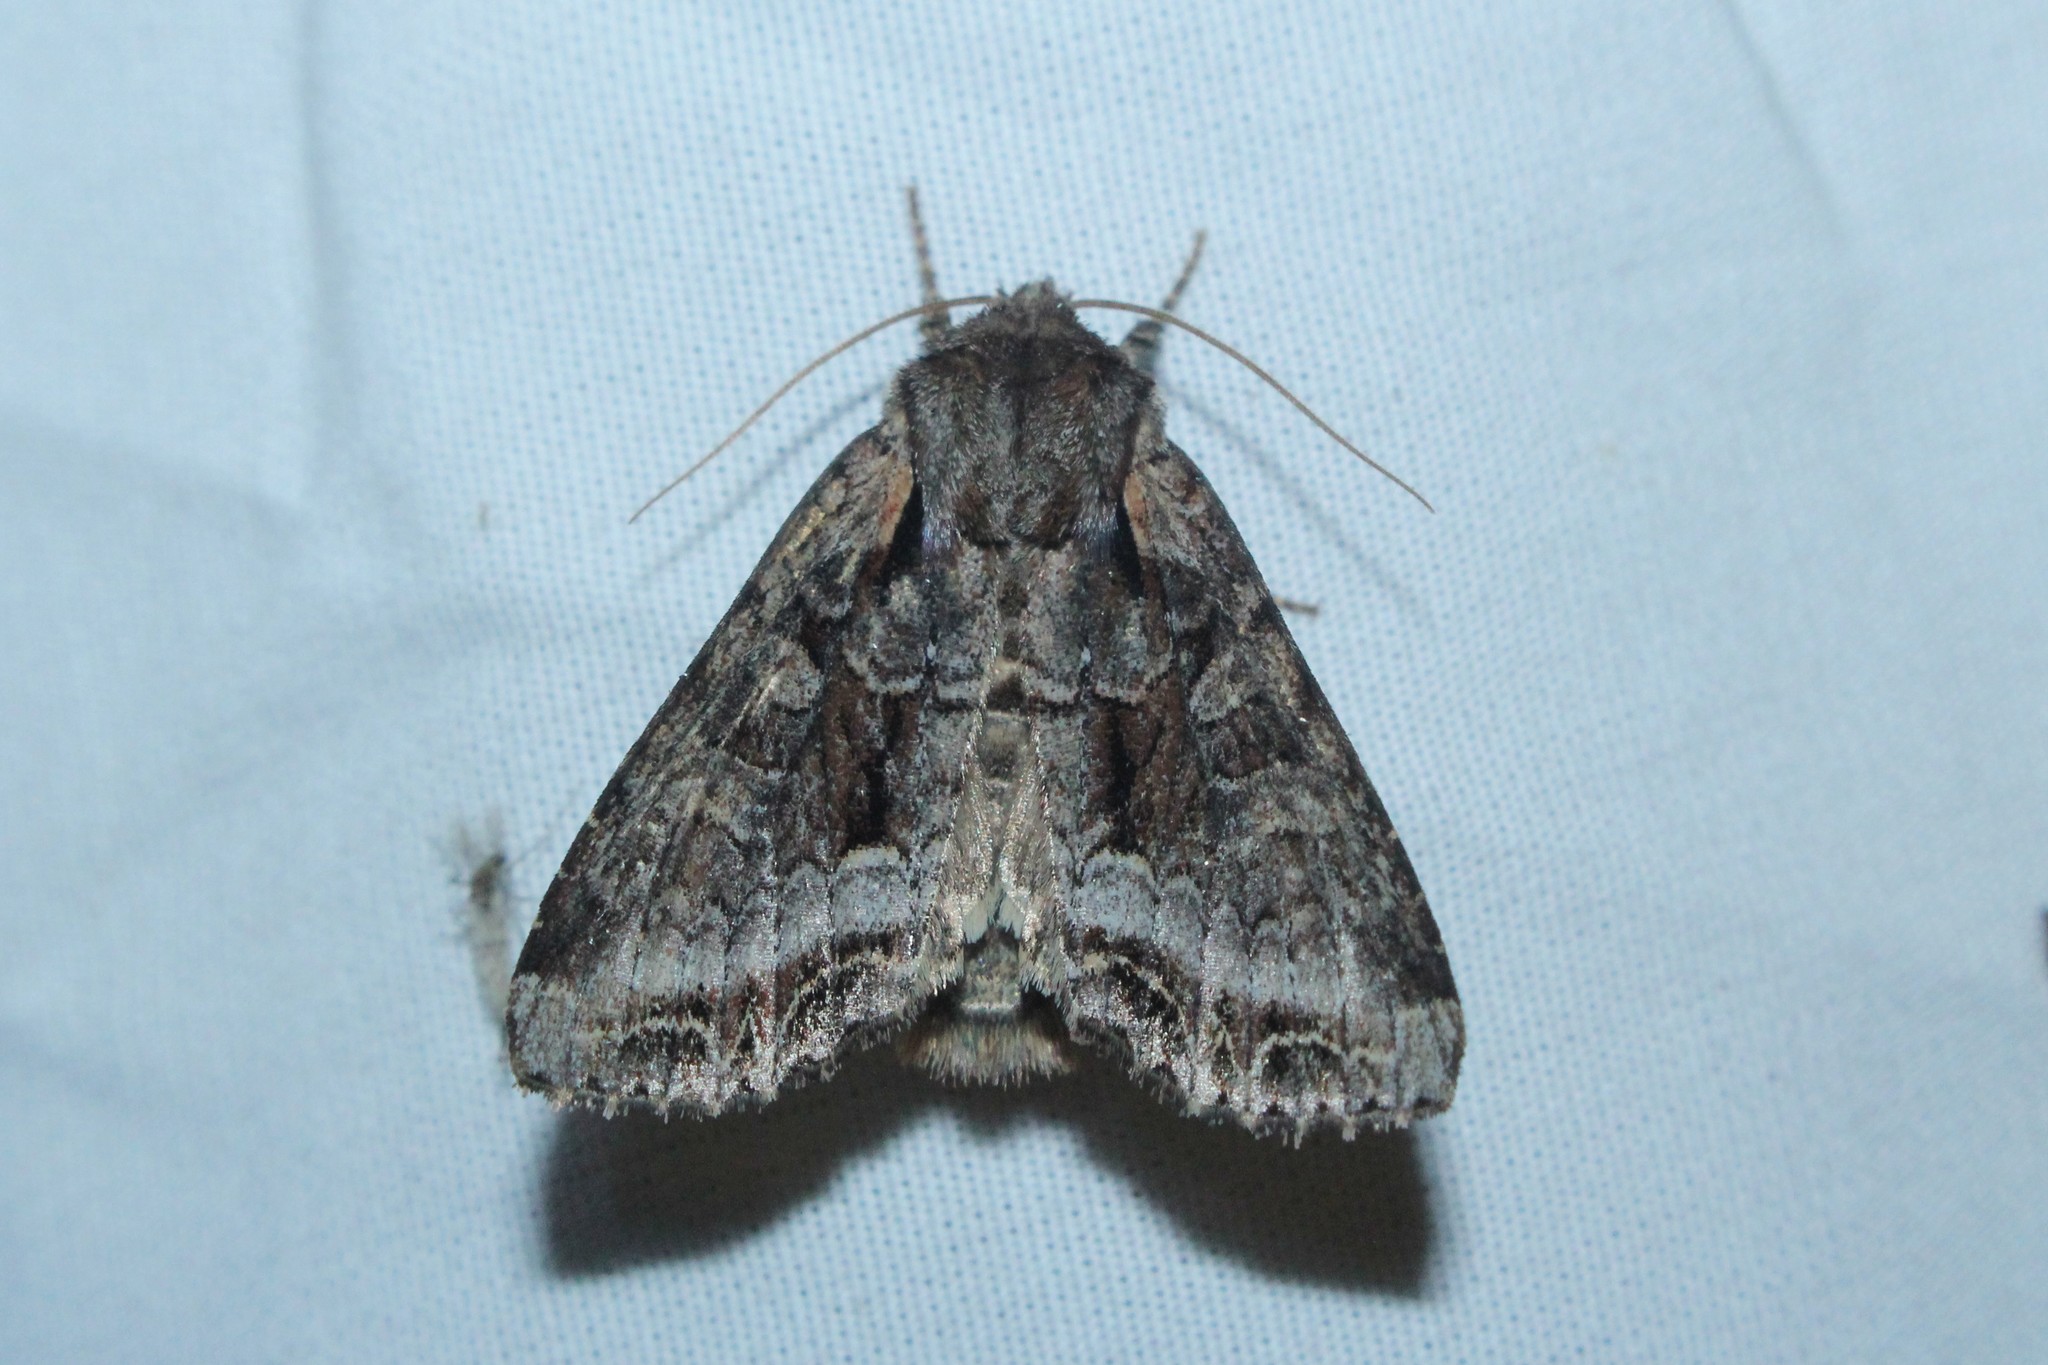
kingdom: Animalia
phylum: Arthropoda
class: Insecta
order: Lepidoptera
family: Noctuidae
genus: Lacanobia
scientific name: Lacanobia grandis
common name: Grand arches moth
